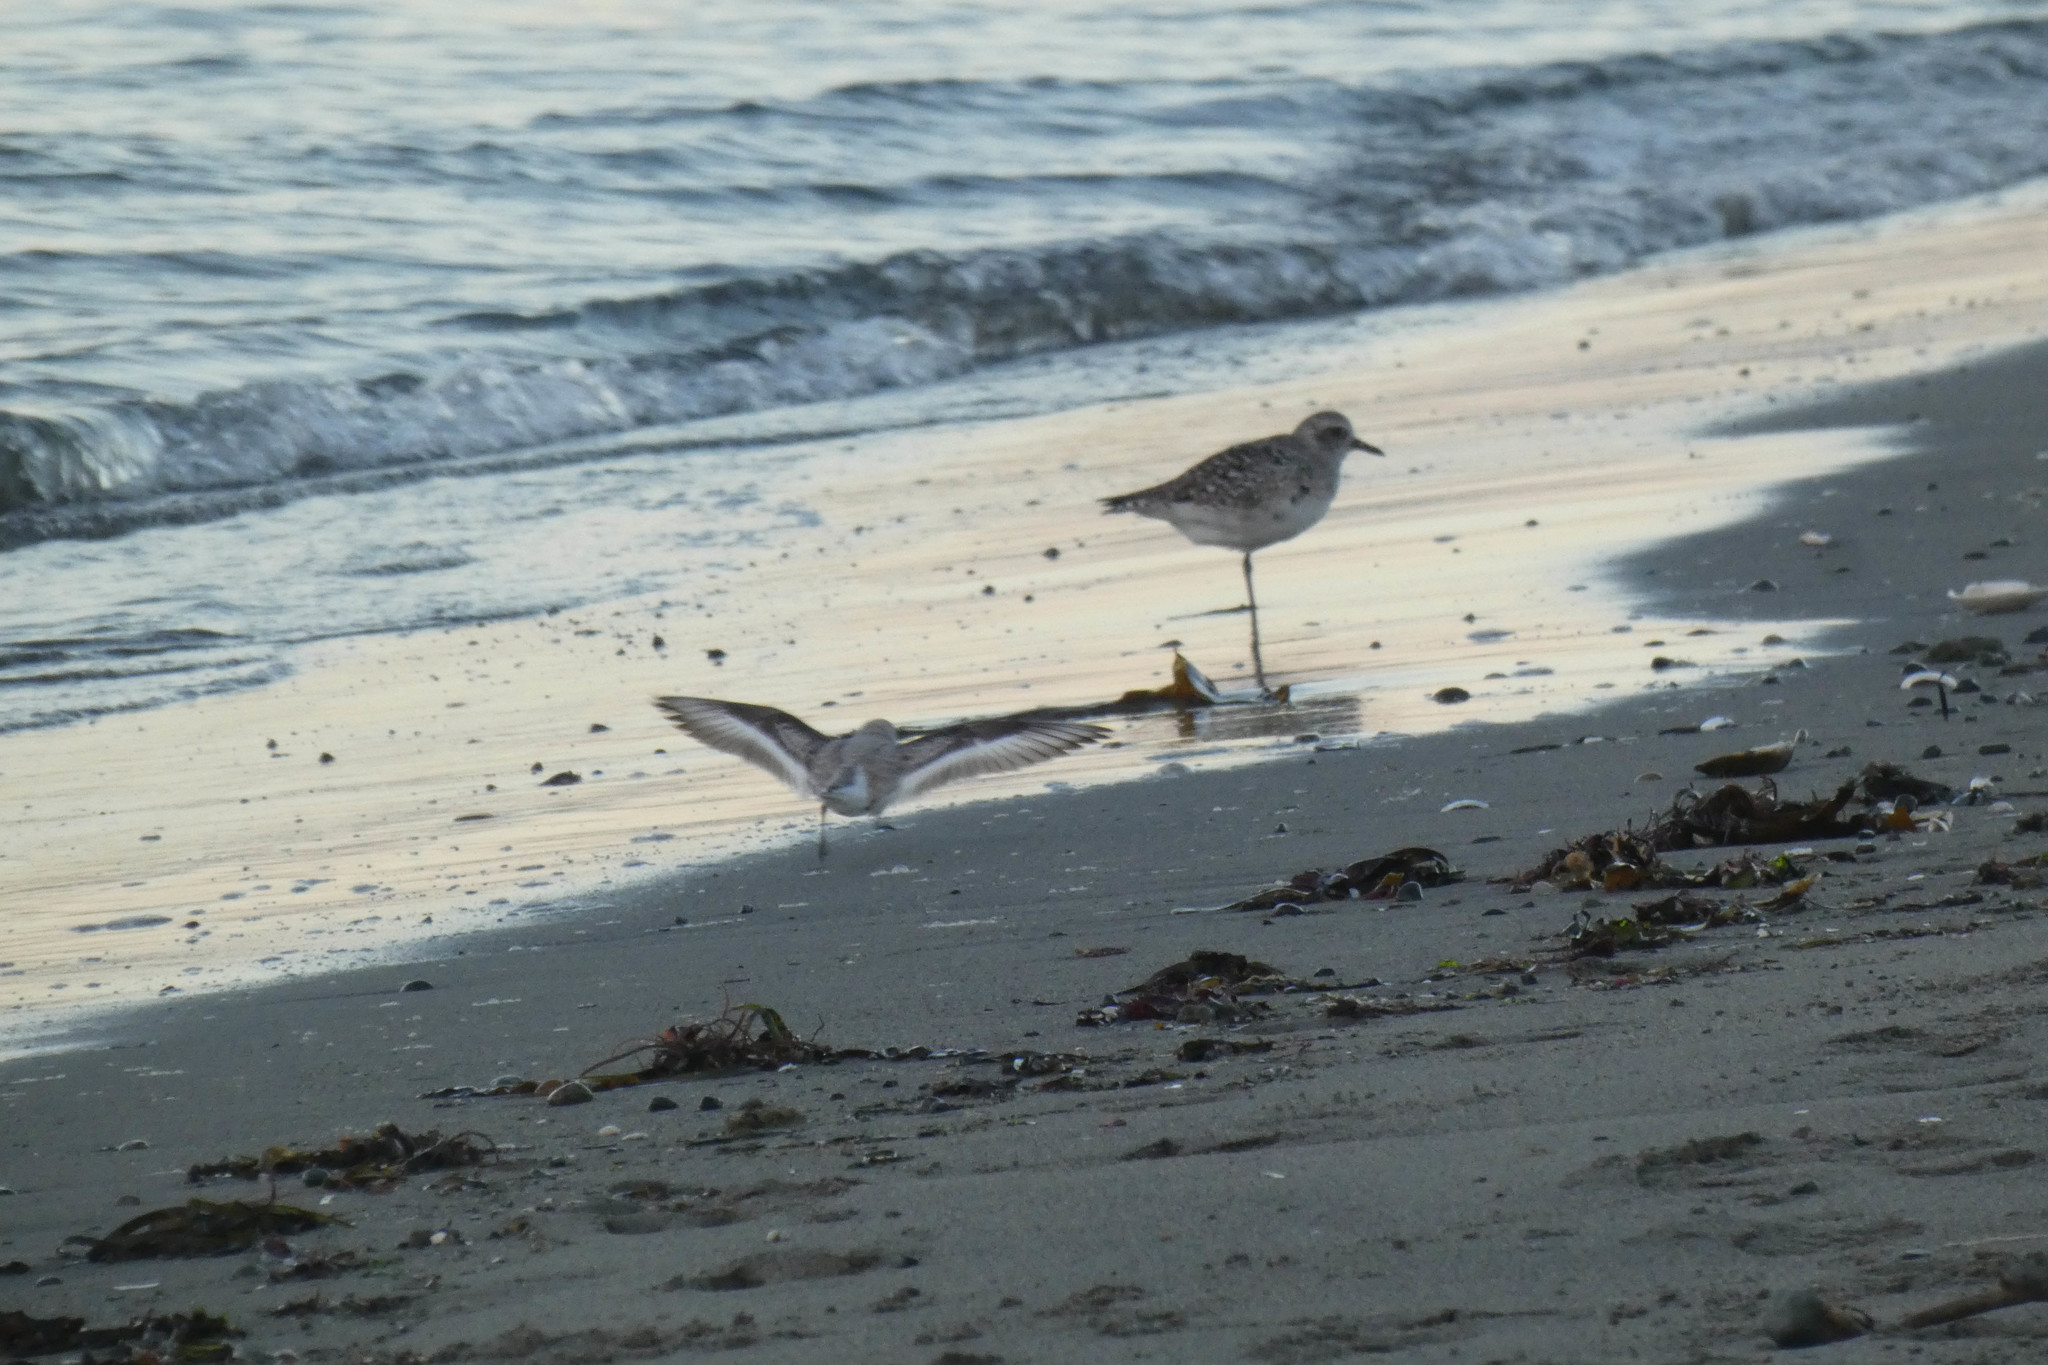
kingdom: Animalia
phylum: Chordata
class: Aves
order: Charadriiformes
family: Scolopacidae
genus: Calidris
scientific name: Calidris alba
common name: Sanderling
